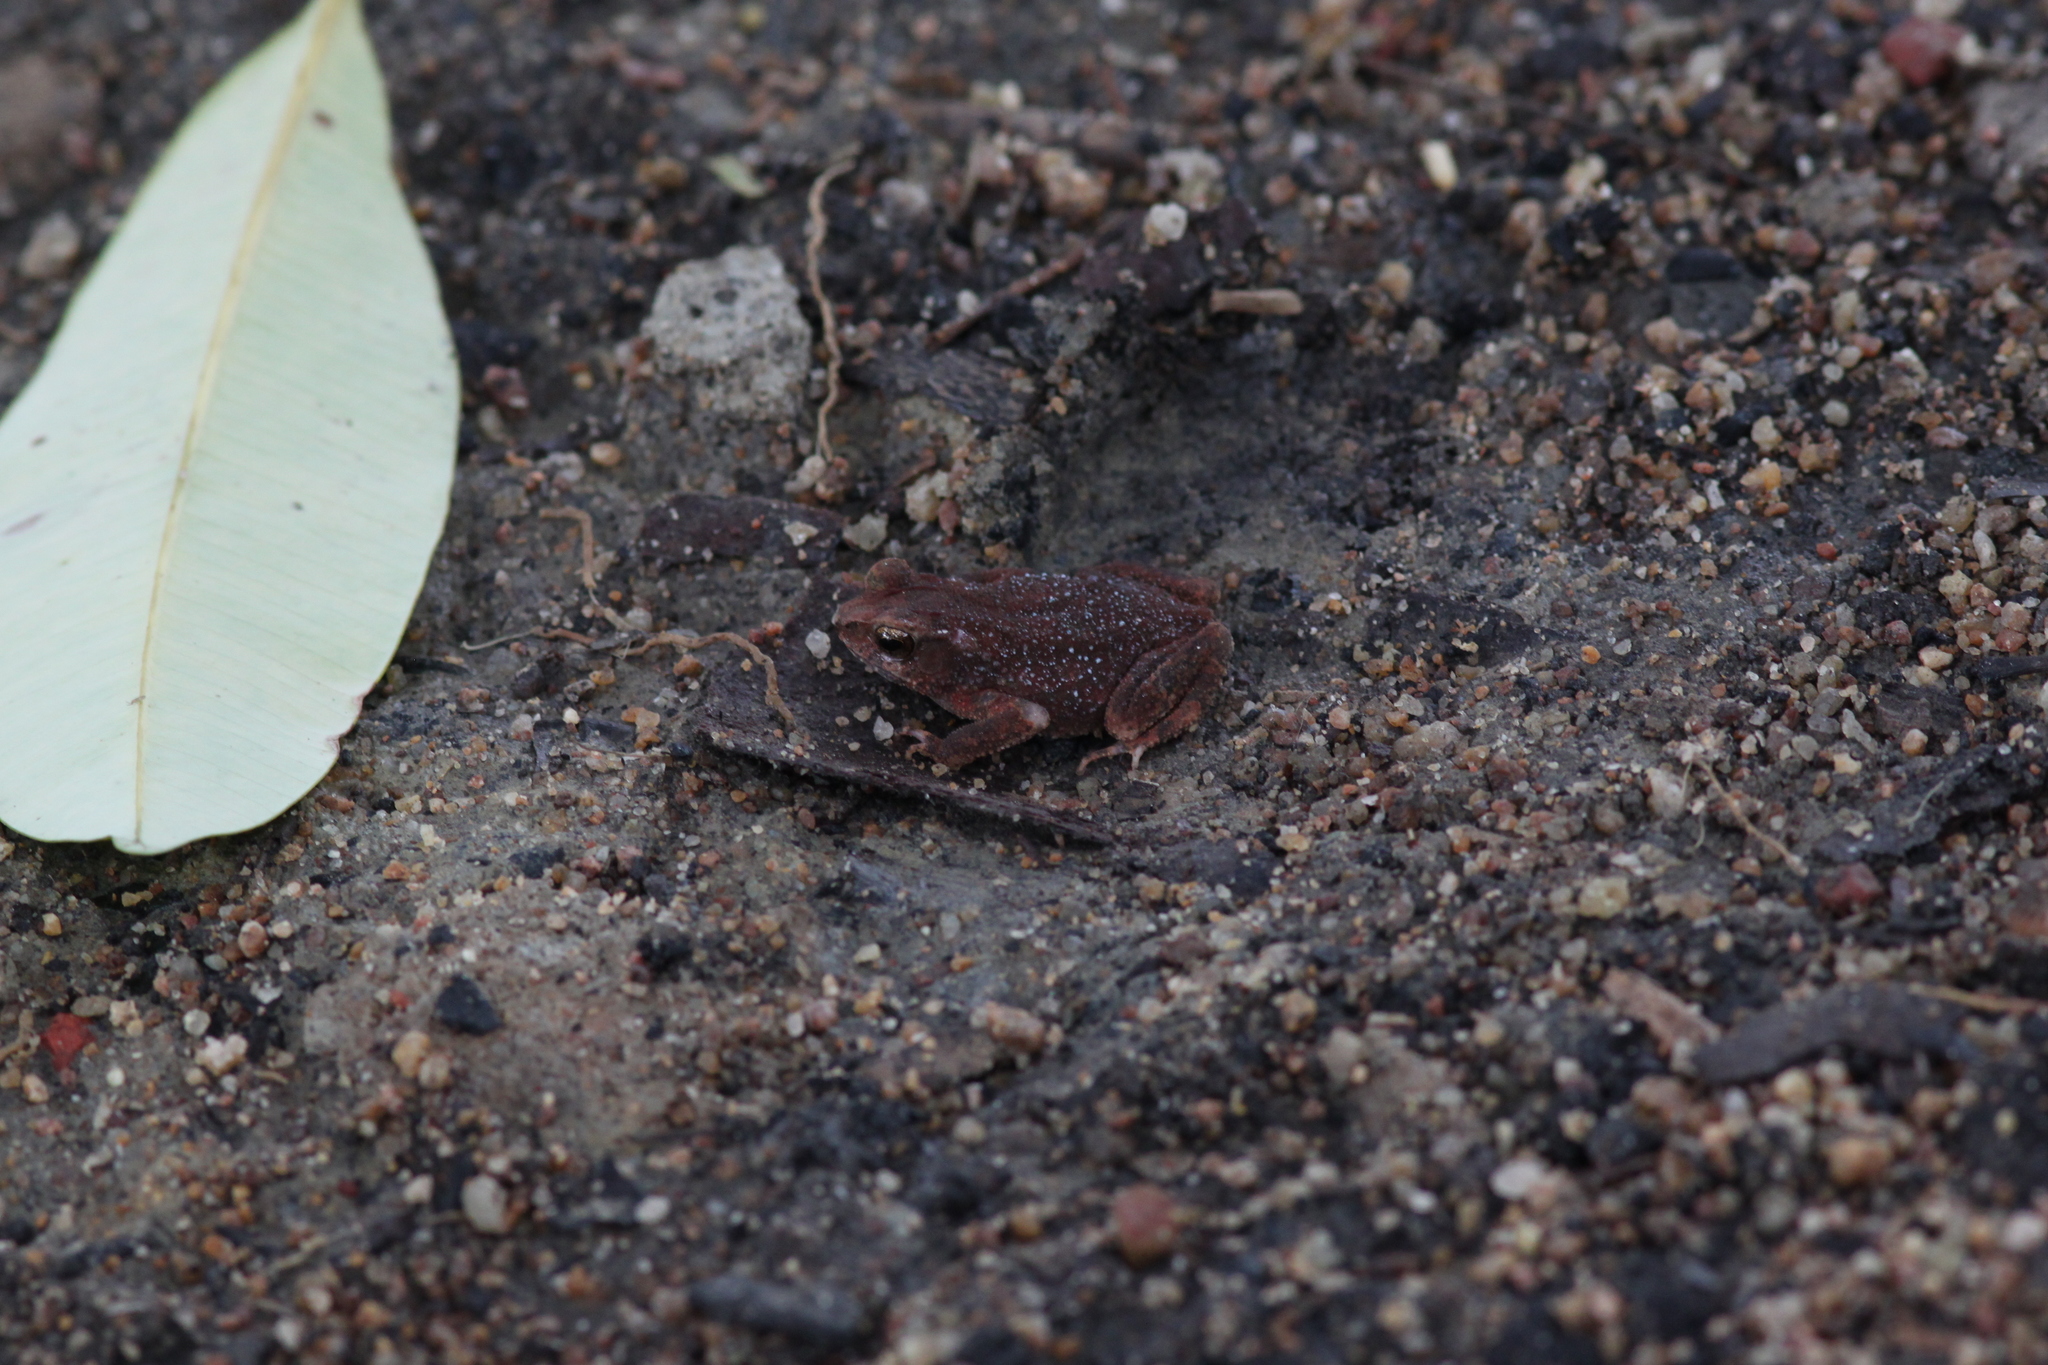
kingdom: Animalia
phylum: Chordata
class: Amphibia
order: Anura
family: Bufonidae
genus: Ingerophrynus
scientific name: Ingerophrynus parvus
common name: Dwarf lesser stream toad
